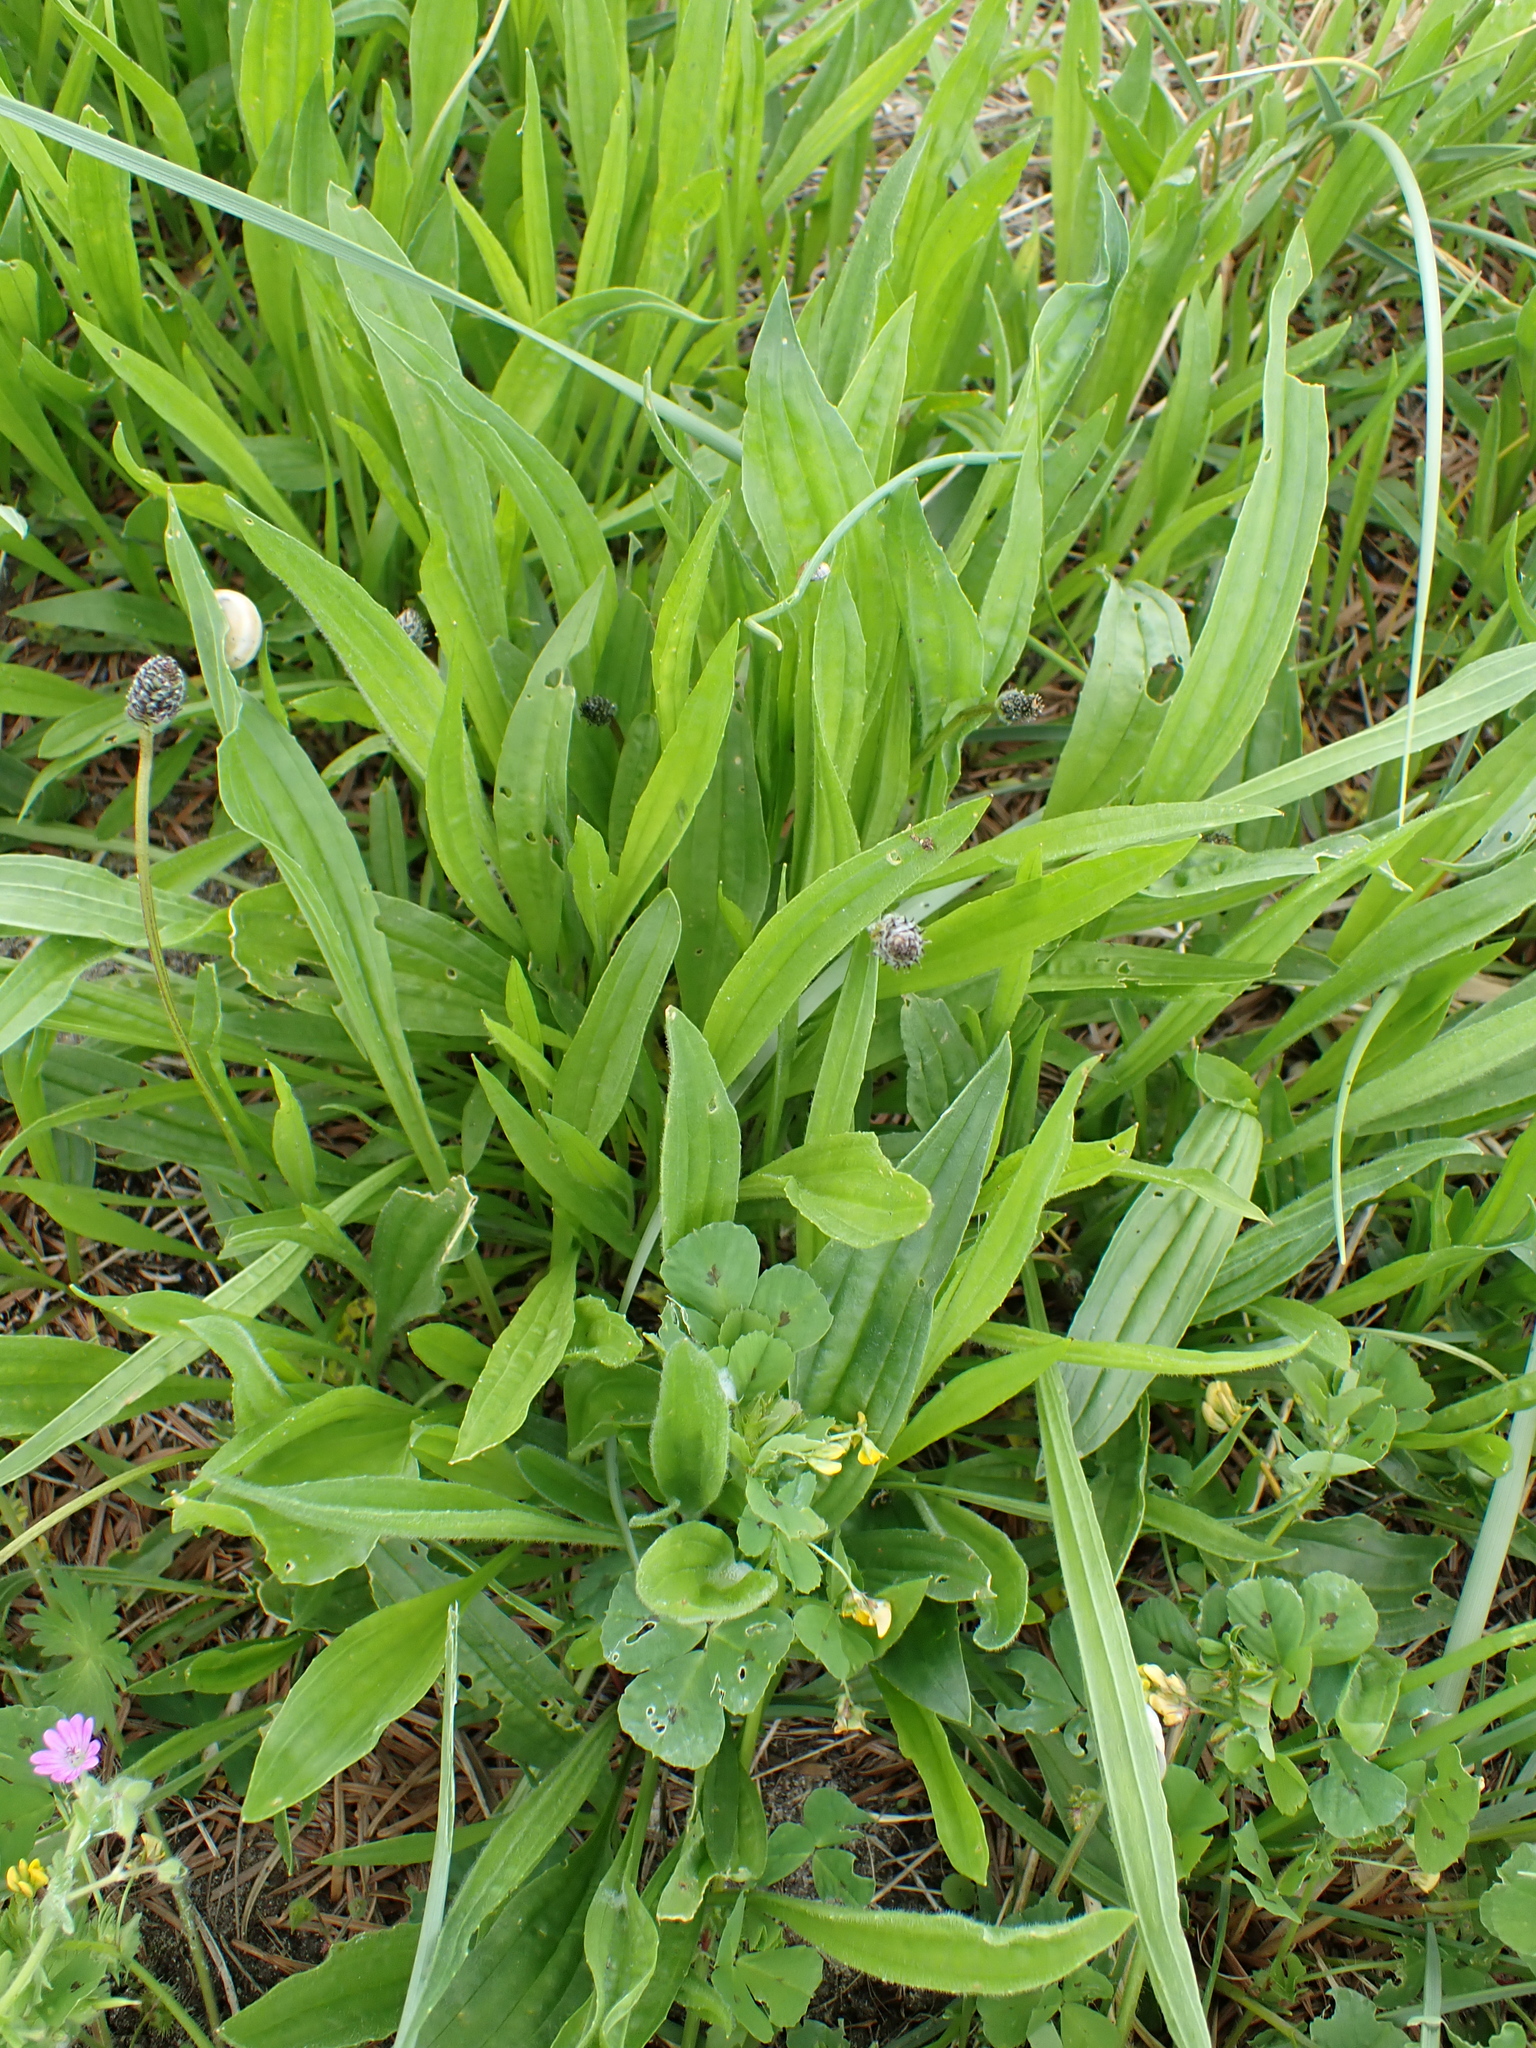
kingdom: Plantae
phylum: Tracheophyta
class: Magnoliopsida
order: Lamiales
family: Plantaginaceae
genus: Plantago
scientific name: Plantago lanceolata
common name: Ribwort plantain
